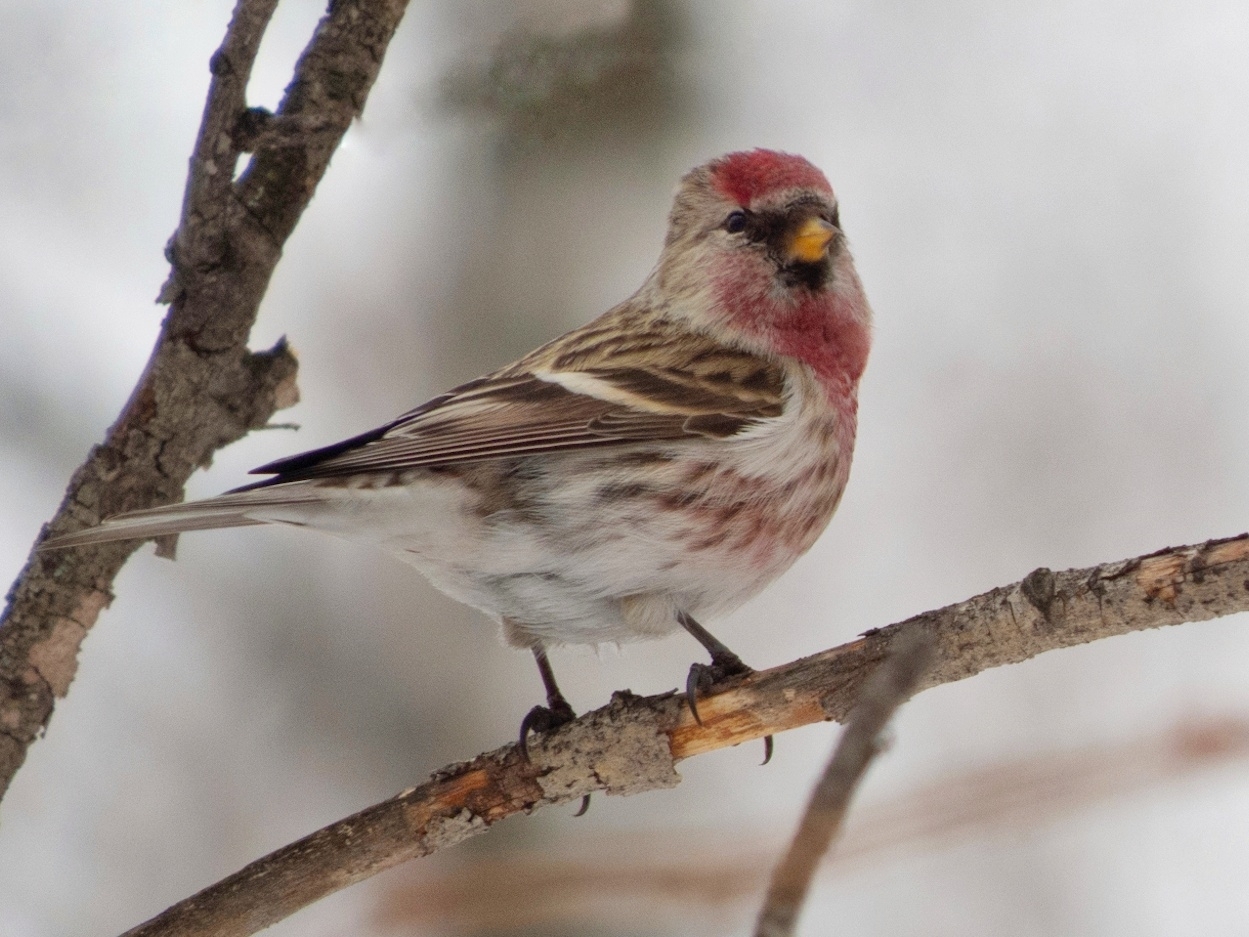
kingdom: Animalia
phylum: Chordata
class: Aves
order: Passeriformes
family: Fringillidae
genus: Acanthis
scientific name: Acanthis flammea
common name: Common redpoll
